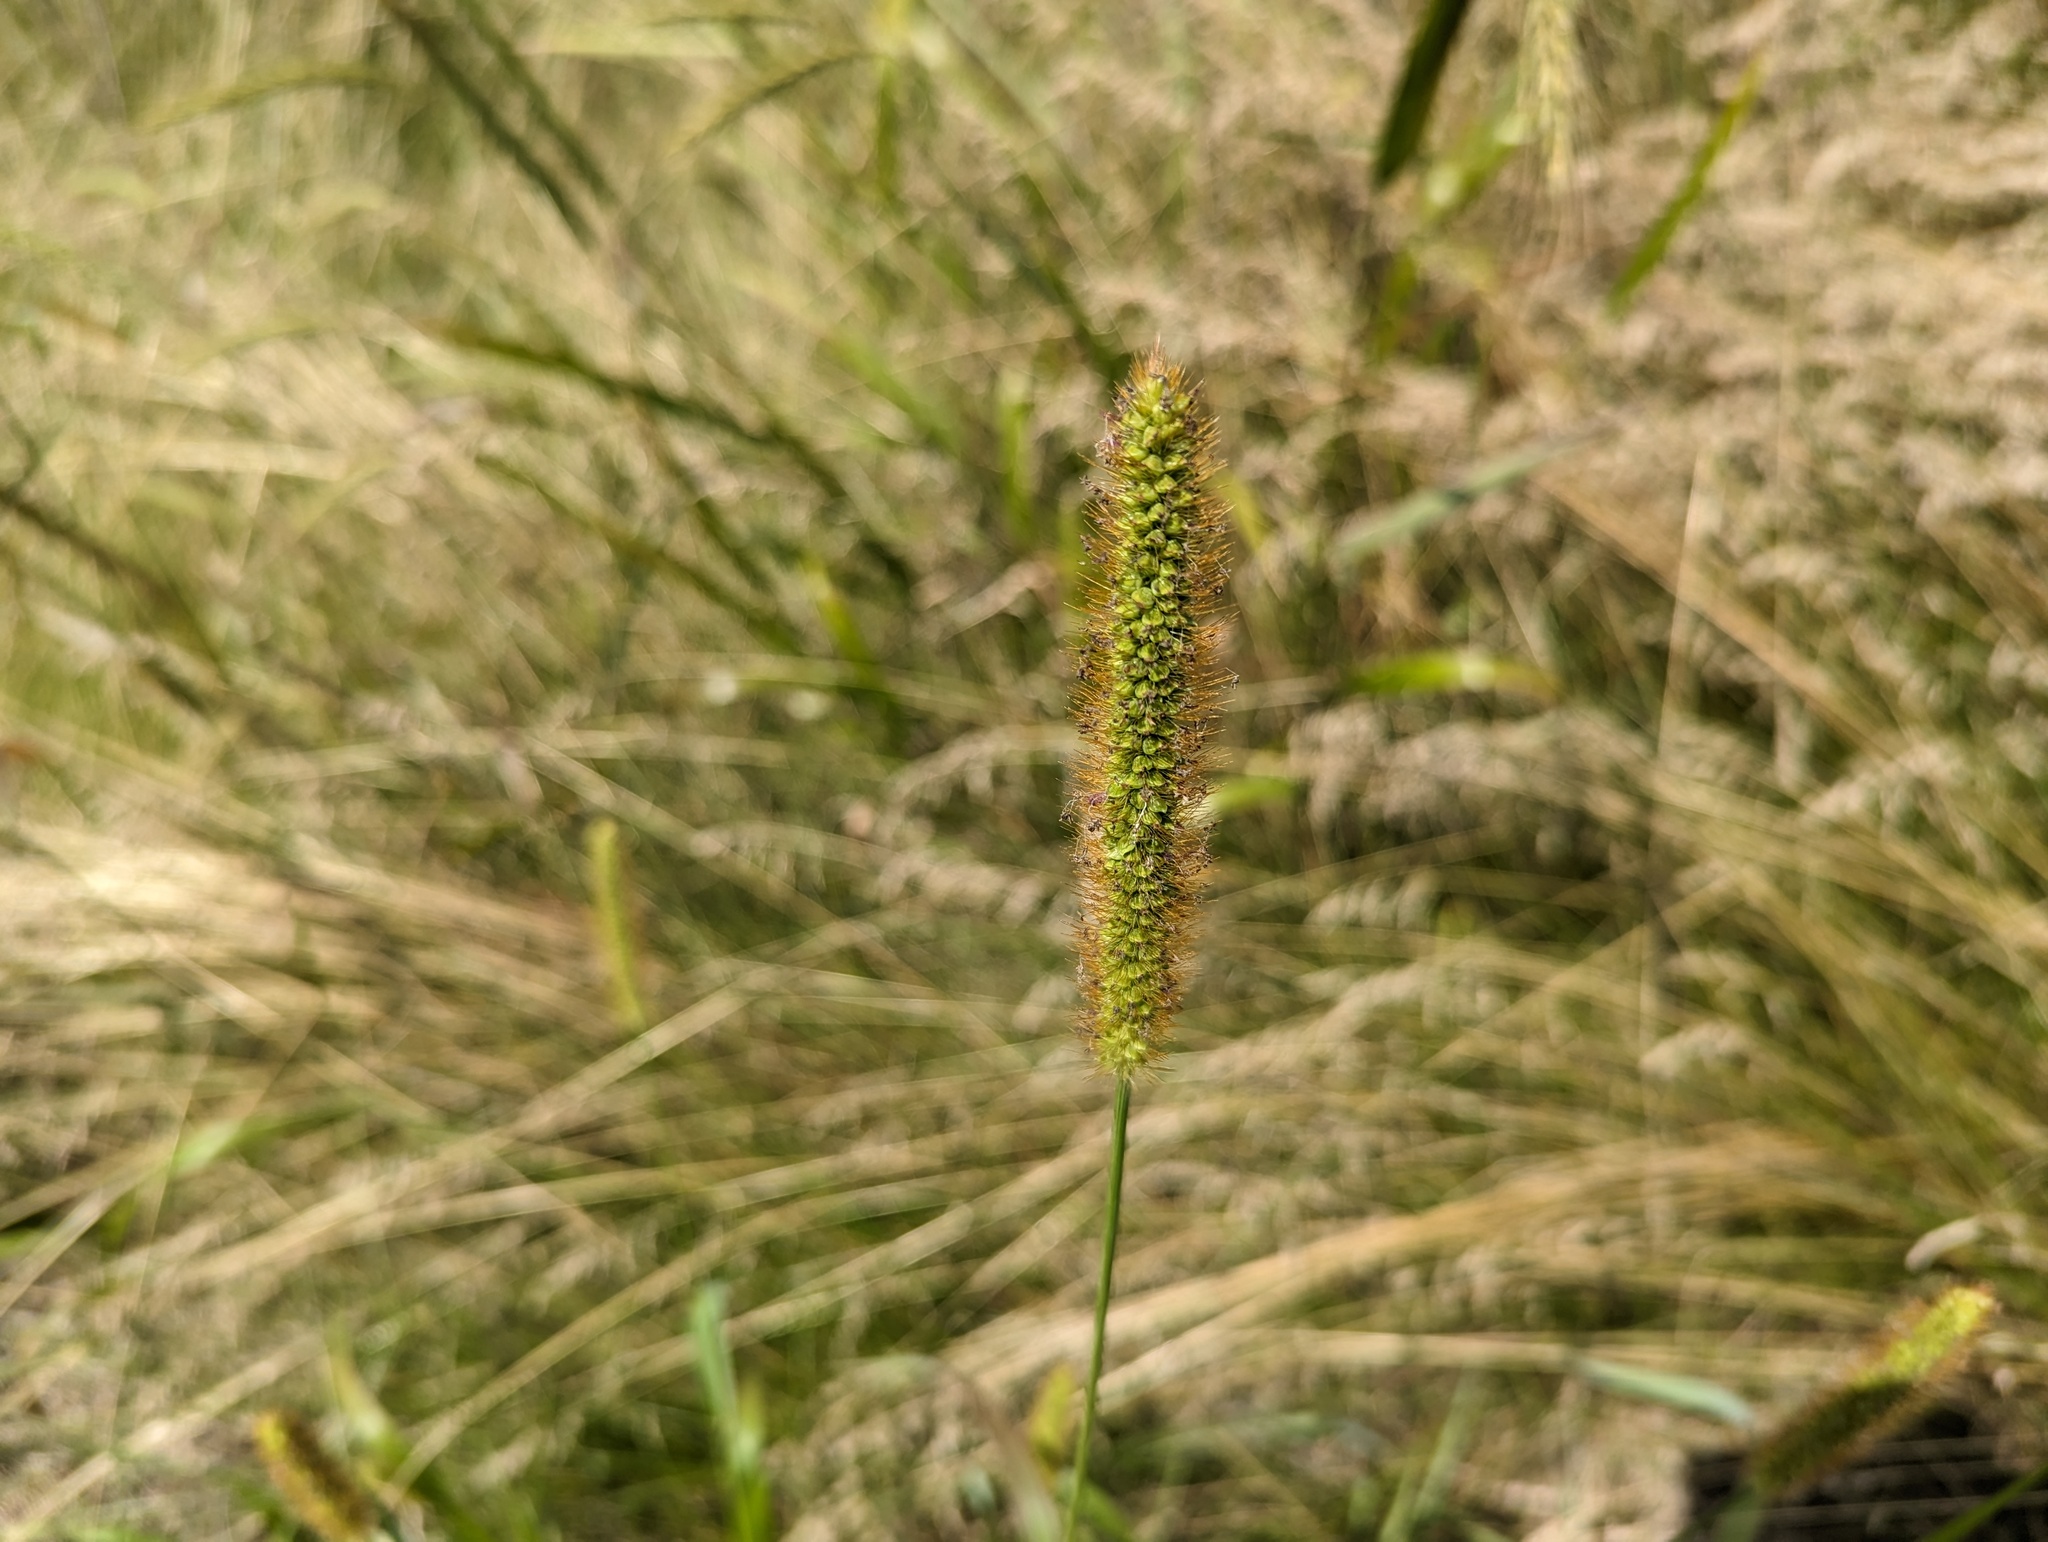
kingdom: Plantae
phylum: Tracheophyta
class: Liliopsida
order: Poales
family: Poaceae
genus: Setaria
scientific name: Setaria pumila
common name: Yellow bristle-grass
